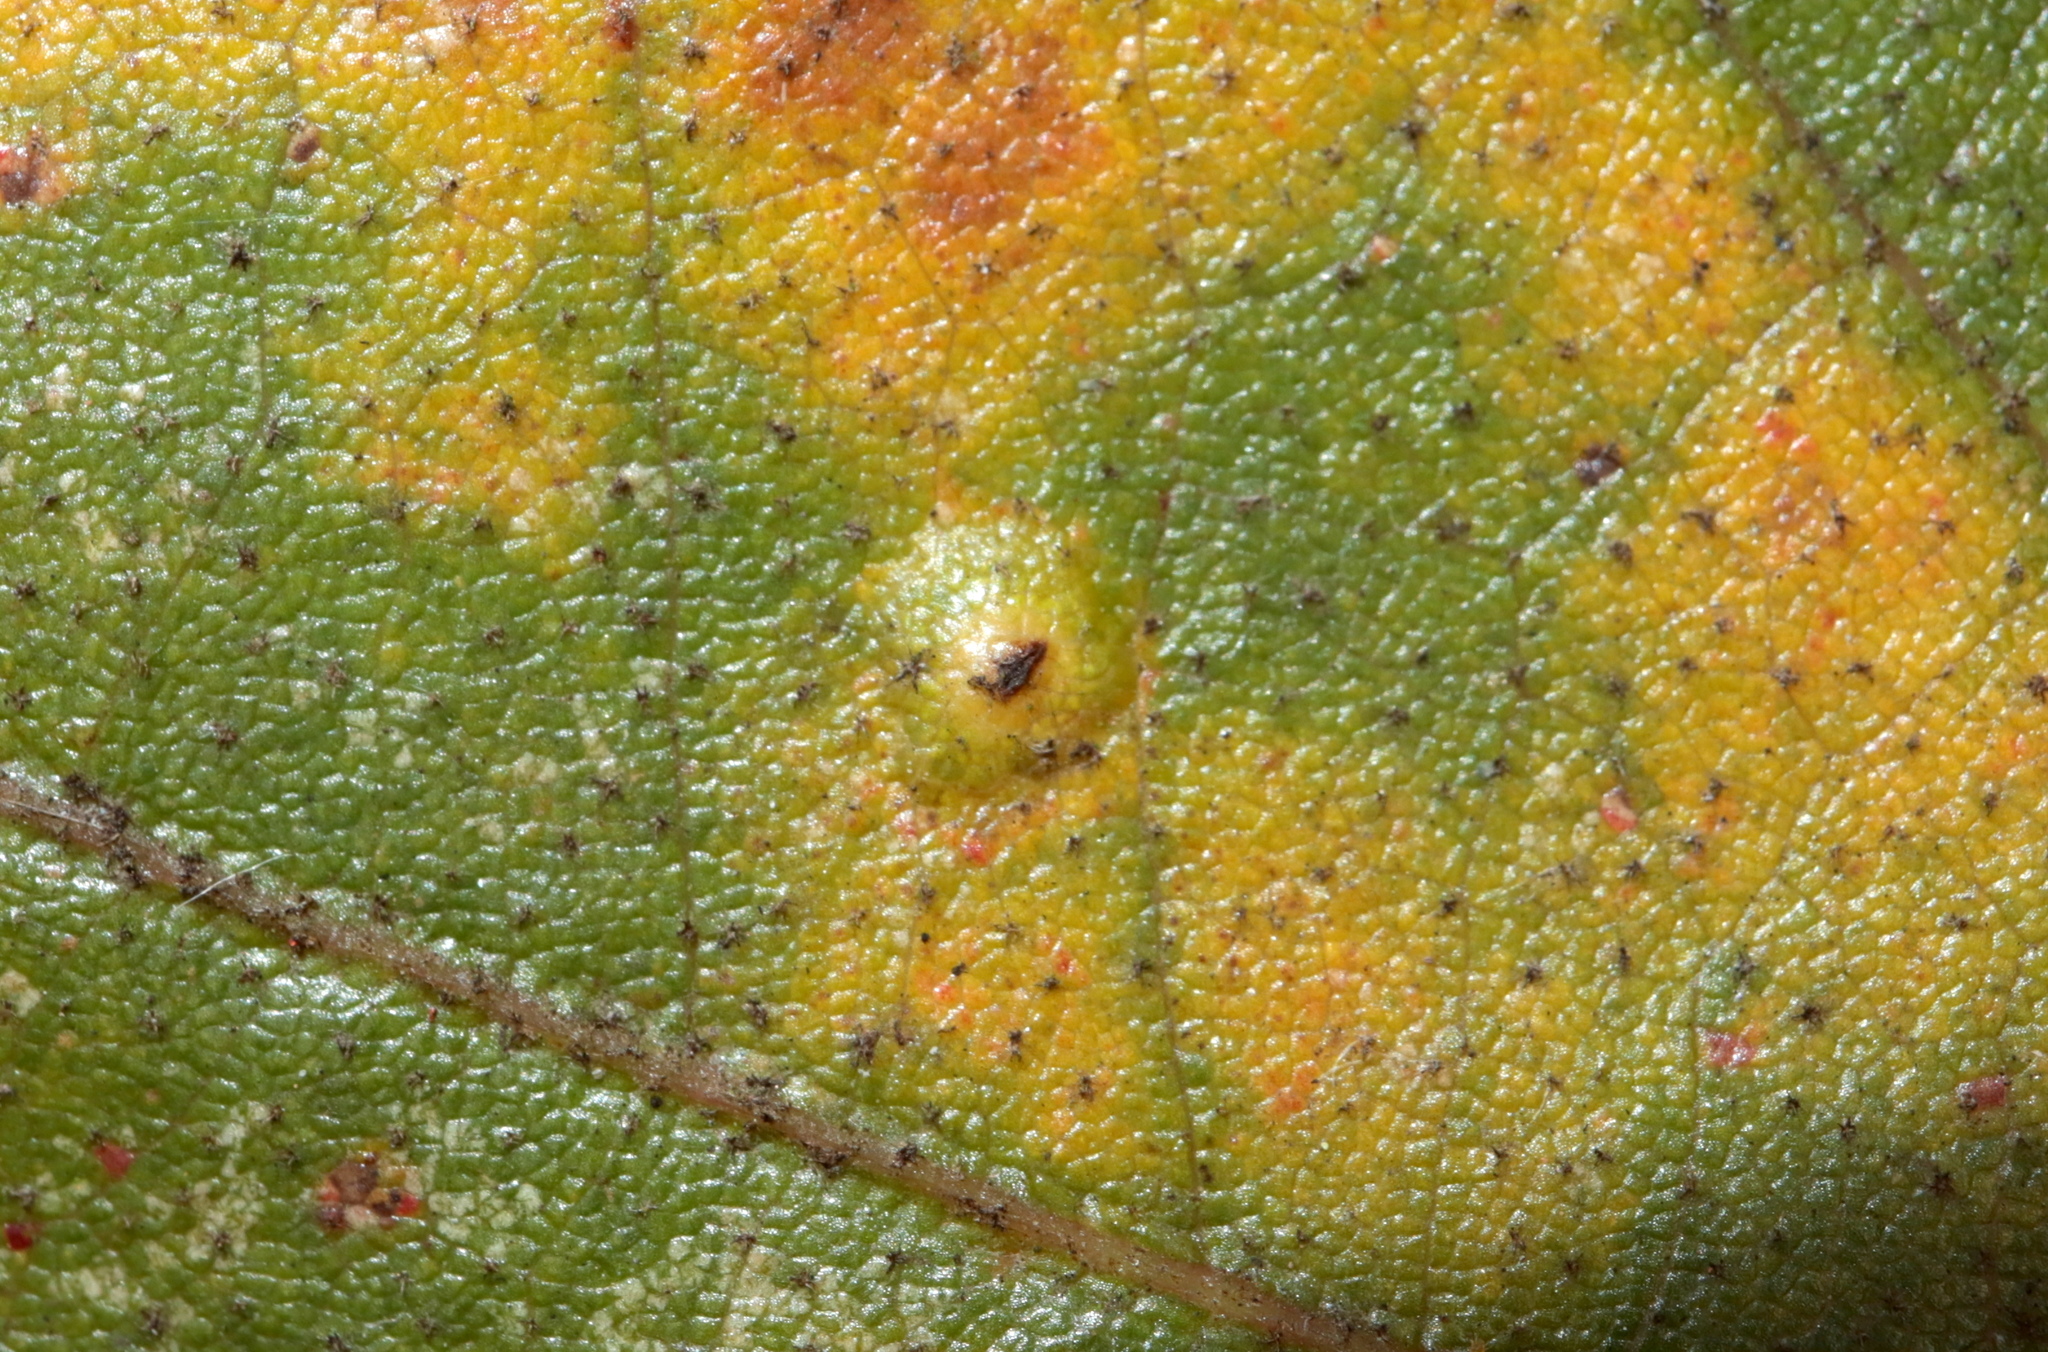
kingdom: Animalia
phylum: Arthropoda
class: Insecta
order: Hymenoptera
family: Cynipidae
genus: Neuroterus
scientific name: Neuroterus niger
